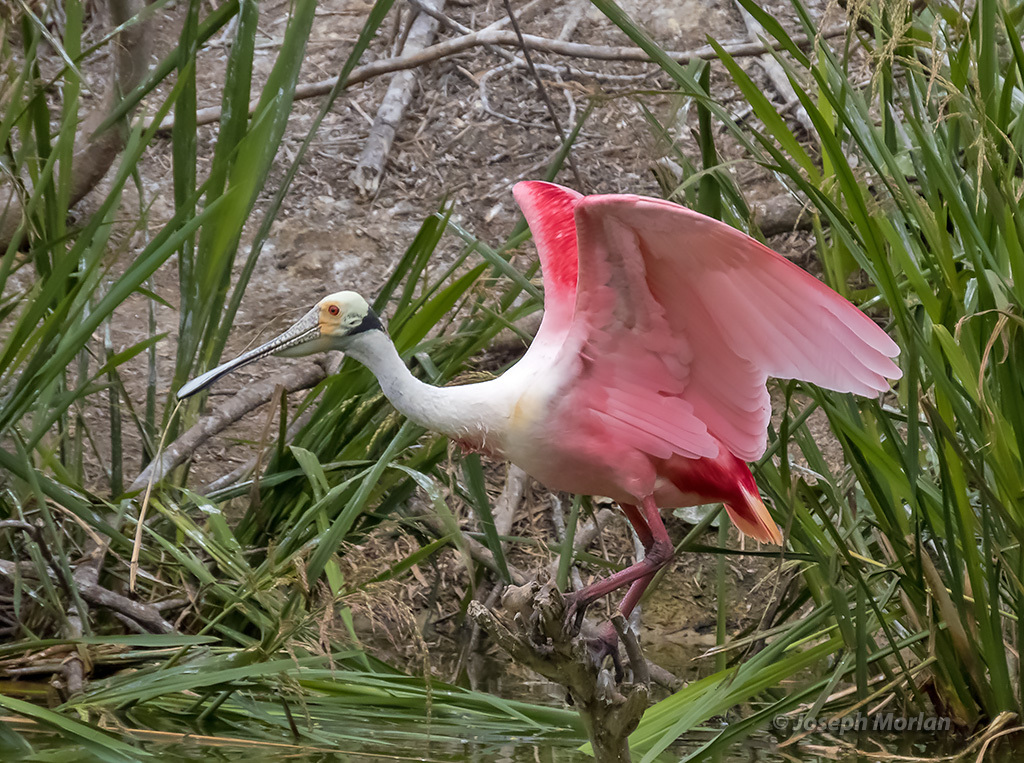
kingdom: Animalia
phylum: Chordata
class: Aves
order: Pelecaniformes
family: Threskiornithidae
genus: Platalea
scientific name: Platalea ajaja
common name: Roseate spoonbill
